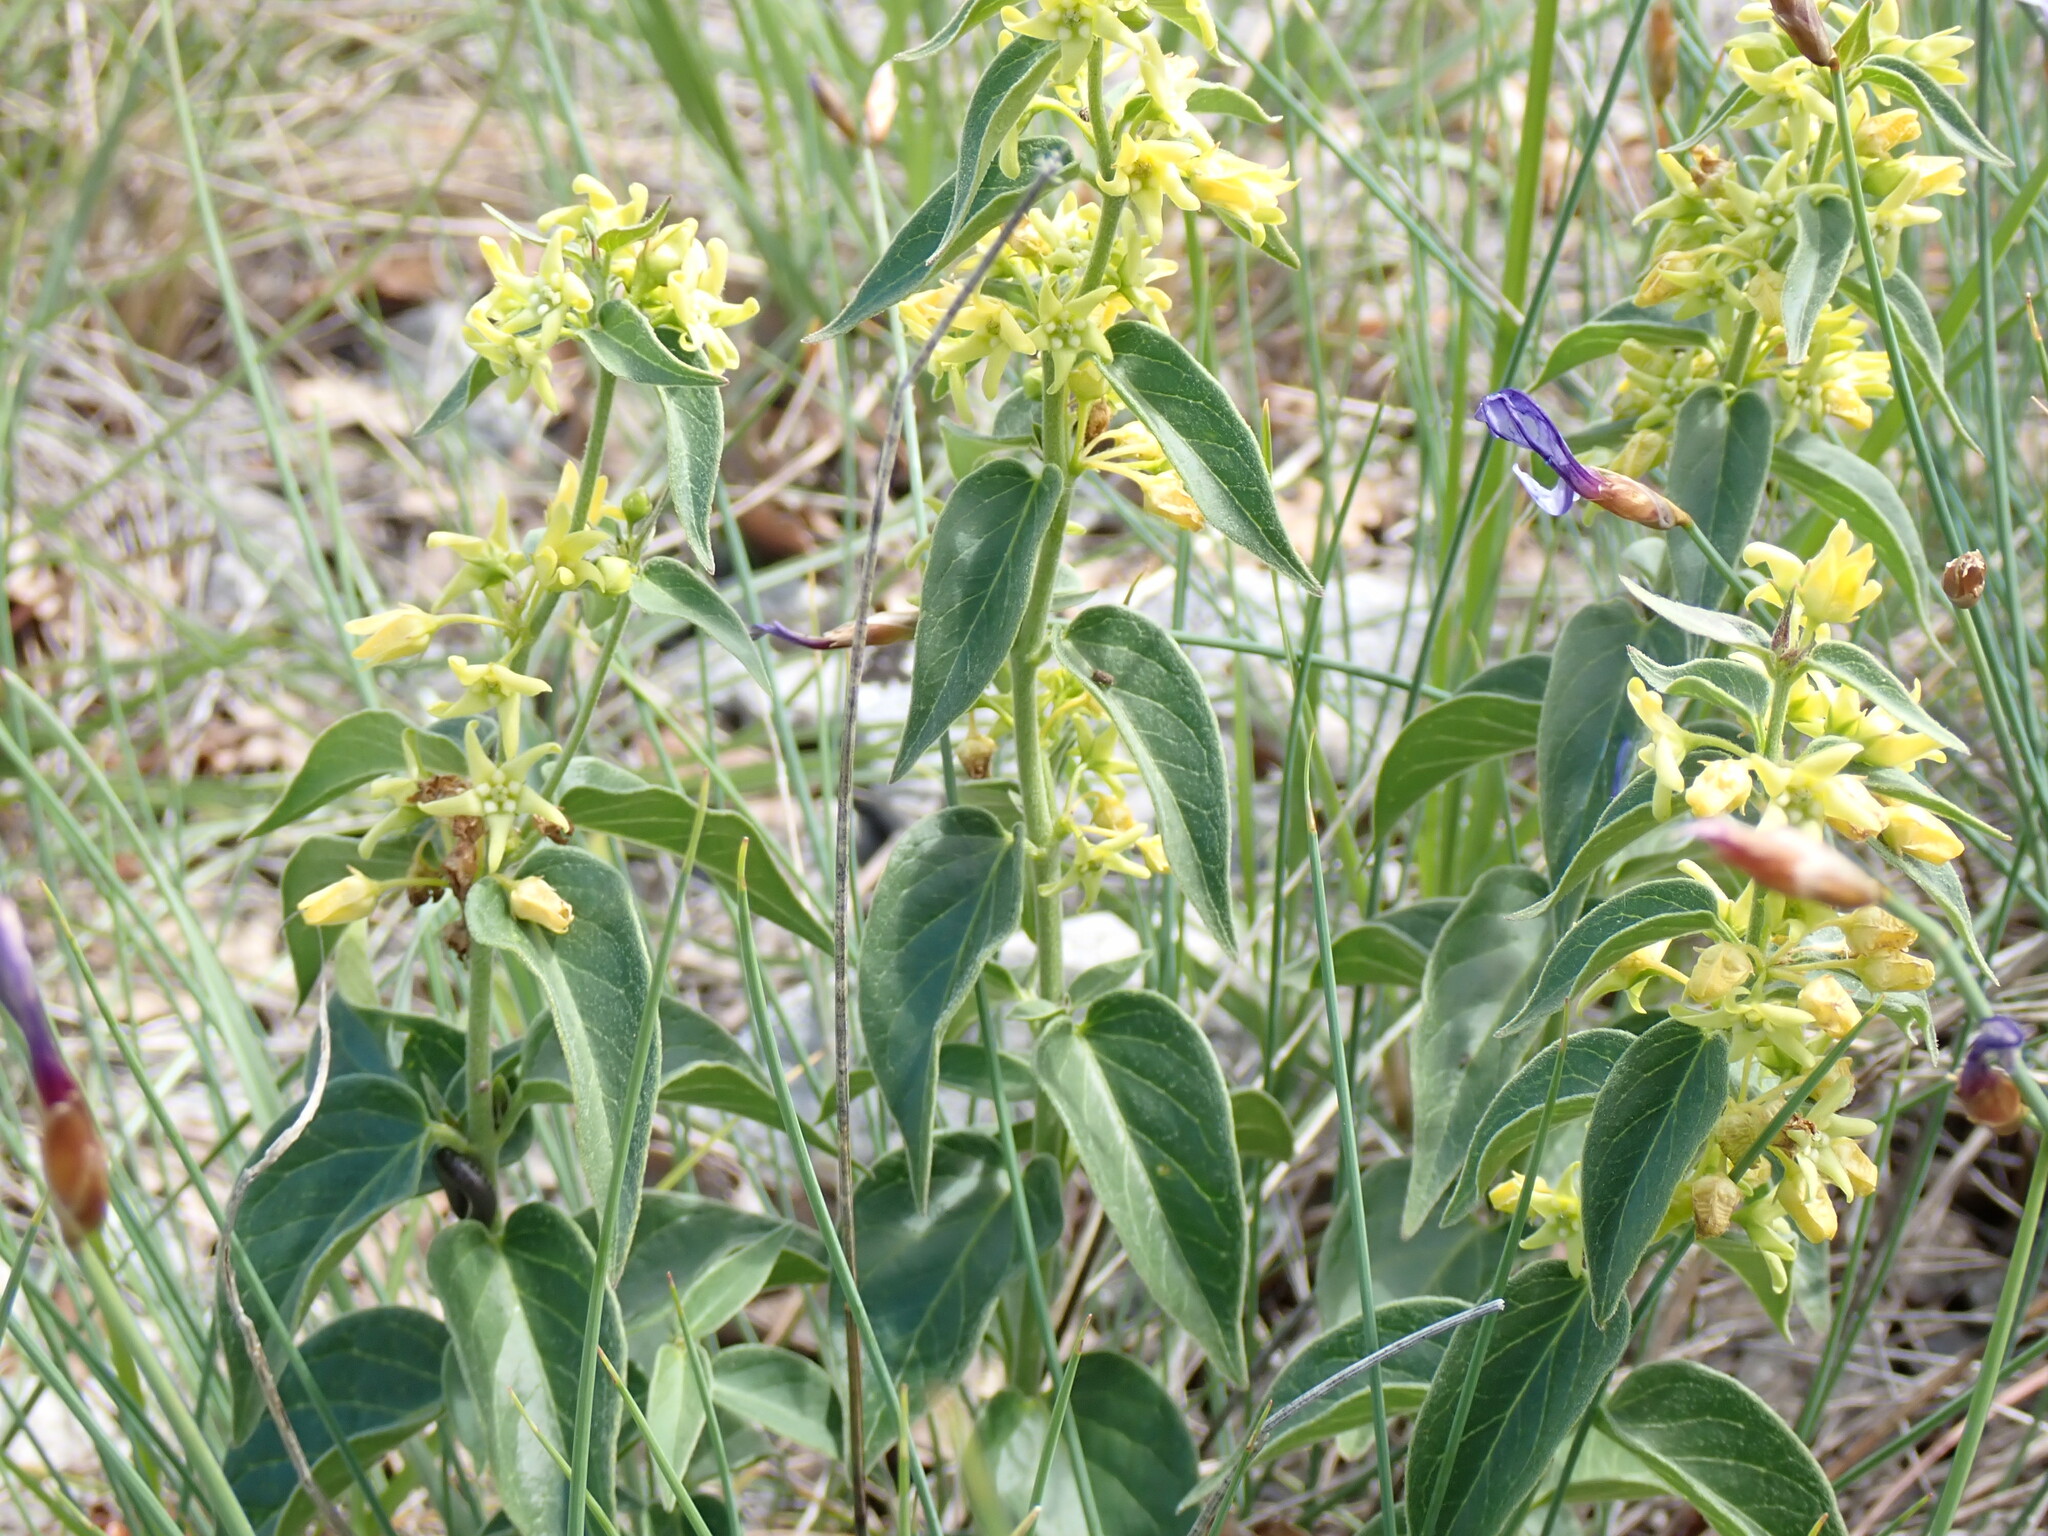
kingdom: Plantae
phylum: Tracheophyta
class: Magnoliopsida
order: Gentianales
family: Apocynaceae
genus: Vincetoxicum
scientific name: Vincetoxicum hirundinaria
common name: White swallowwort
